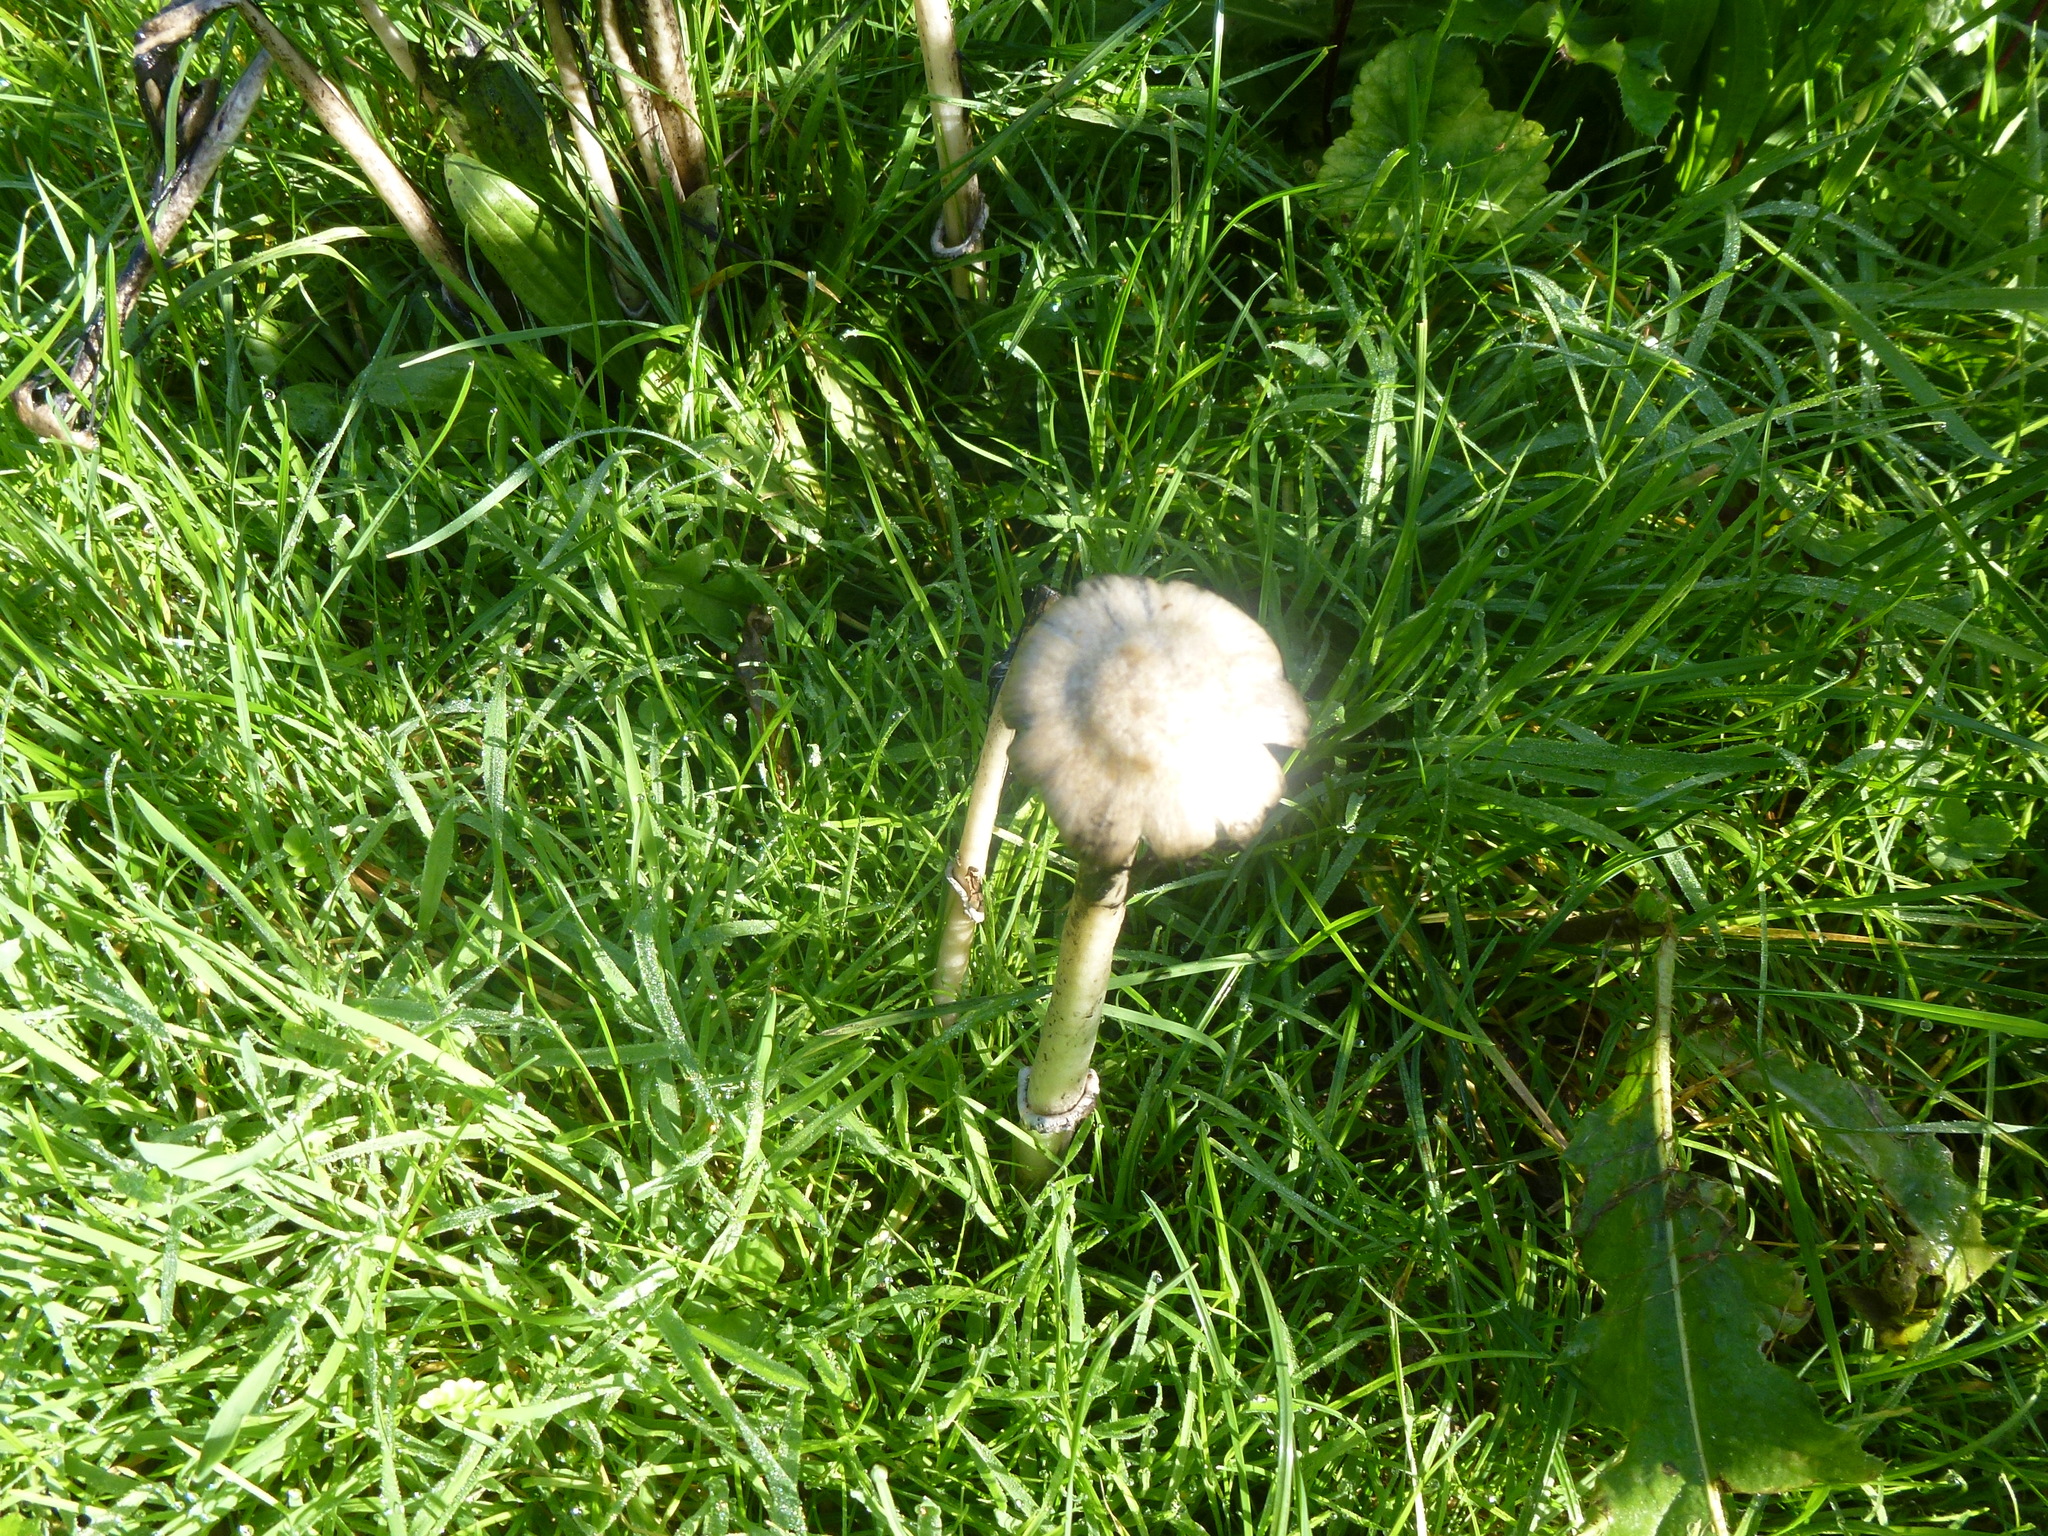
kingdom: Fungi
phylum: Basidiomycota
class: Agaricomycetes
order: Agaricales
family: Agaricaceae
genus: Coprinus
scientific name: Coprinus comatus
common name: Lawyer's wig
